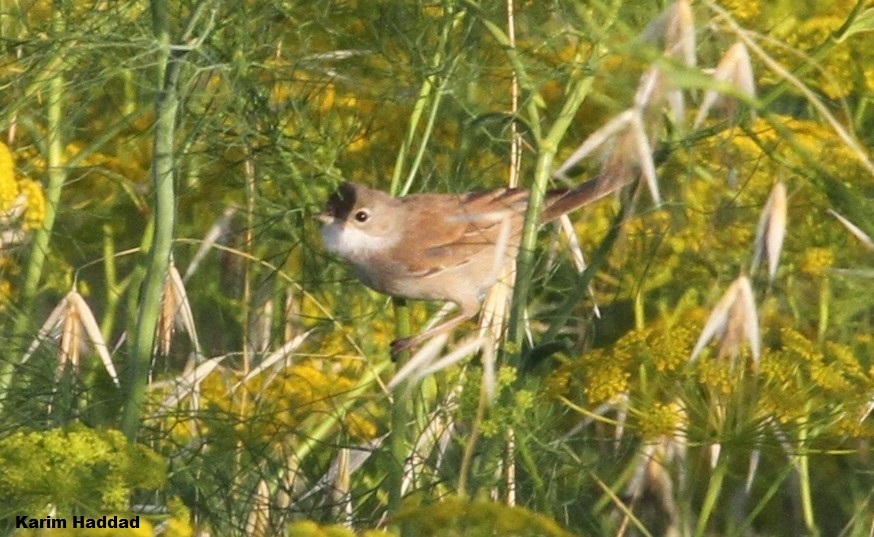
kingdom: Animalia
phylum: Chordata
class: Aves
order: Passeriformes
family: Sylviidae
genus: Sylvia
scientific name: Sylvia communis
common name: Common whitethroat
